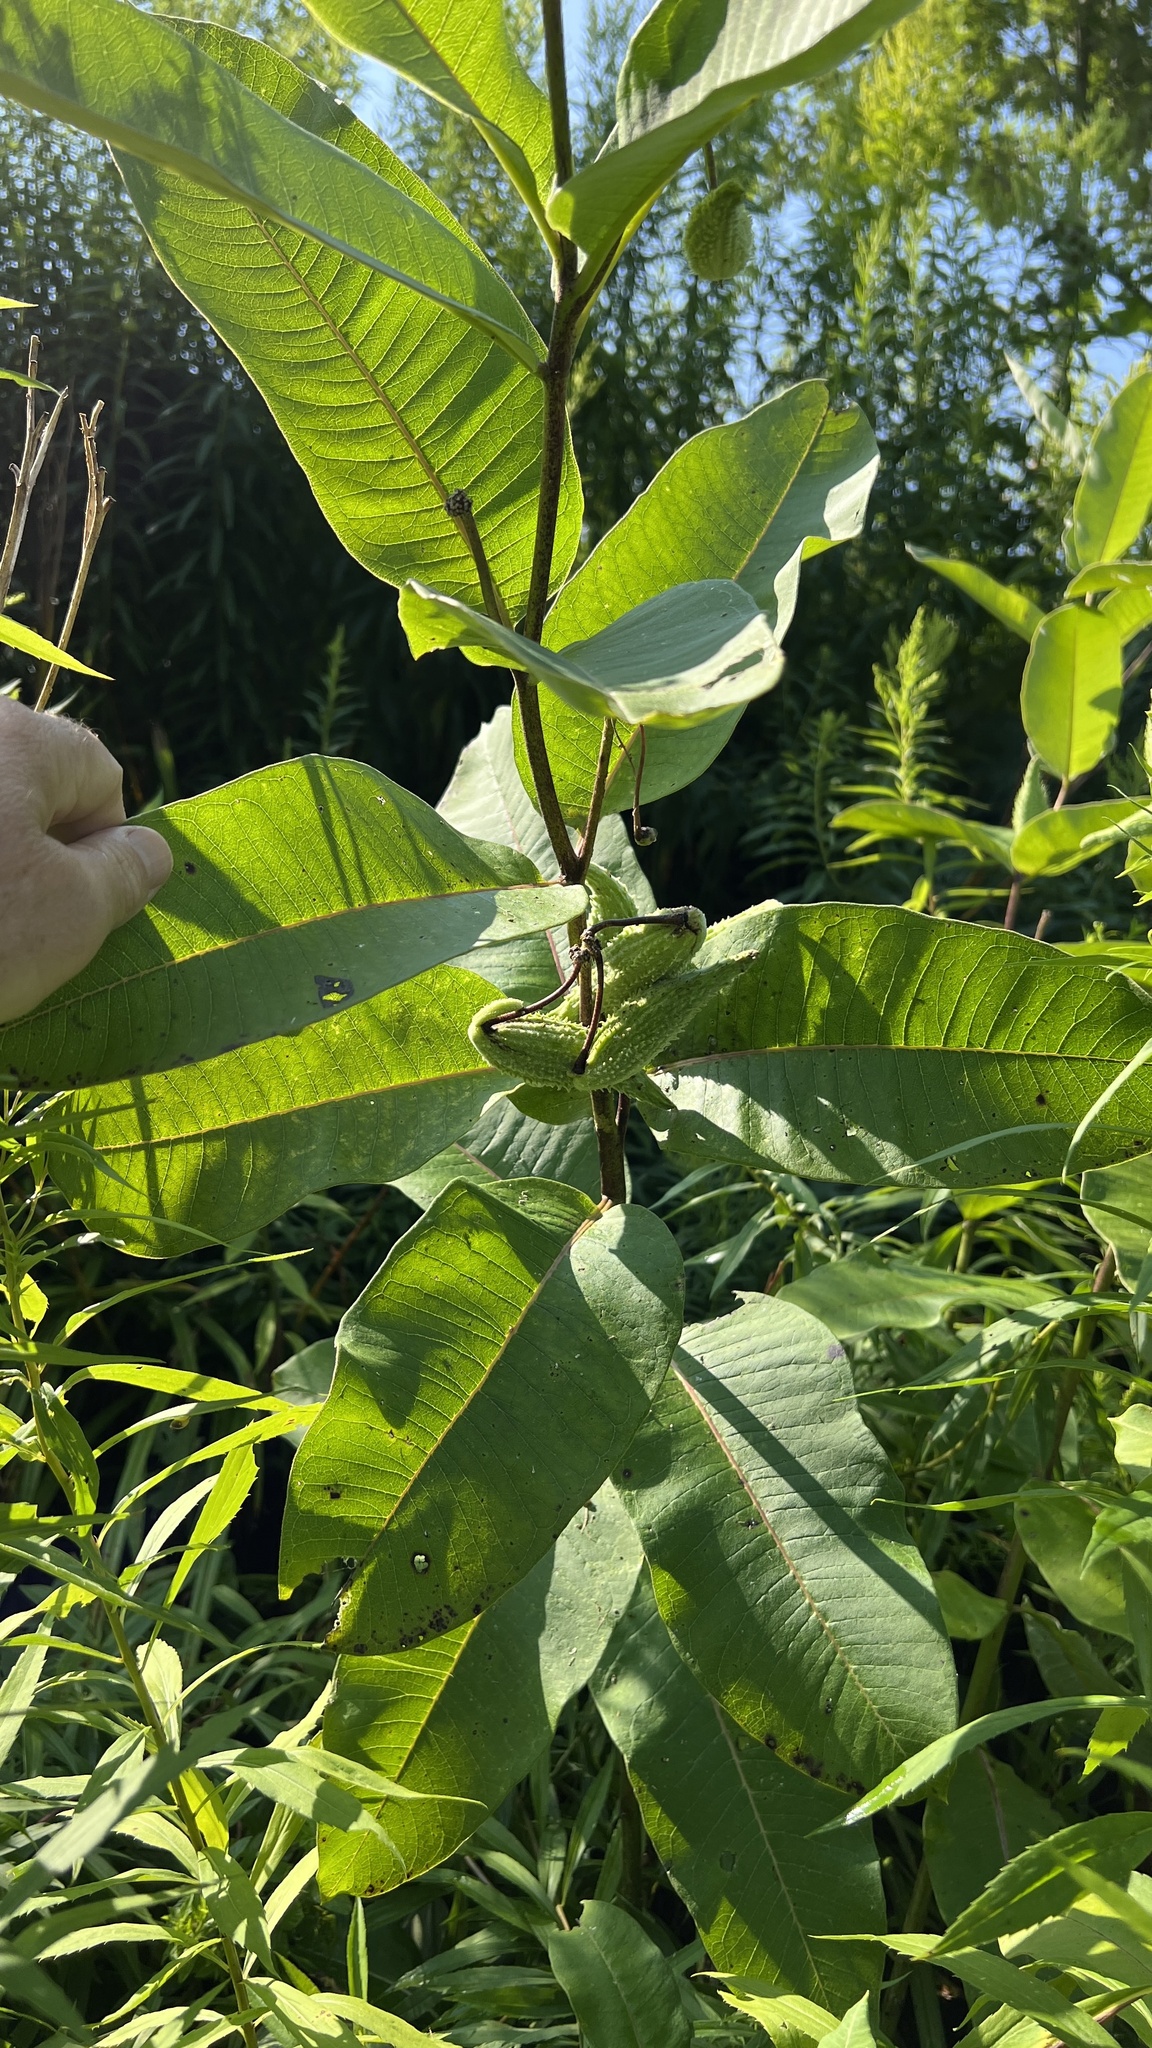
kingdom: Plantae
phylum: Tracheophyta
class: Magnoliopsida
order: Gentianales
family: Apocynaceae
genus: Asclepias
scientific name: Asclepias syriaca
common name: Common milkweed
